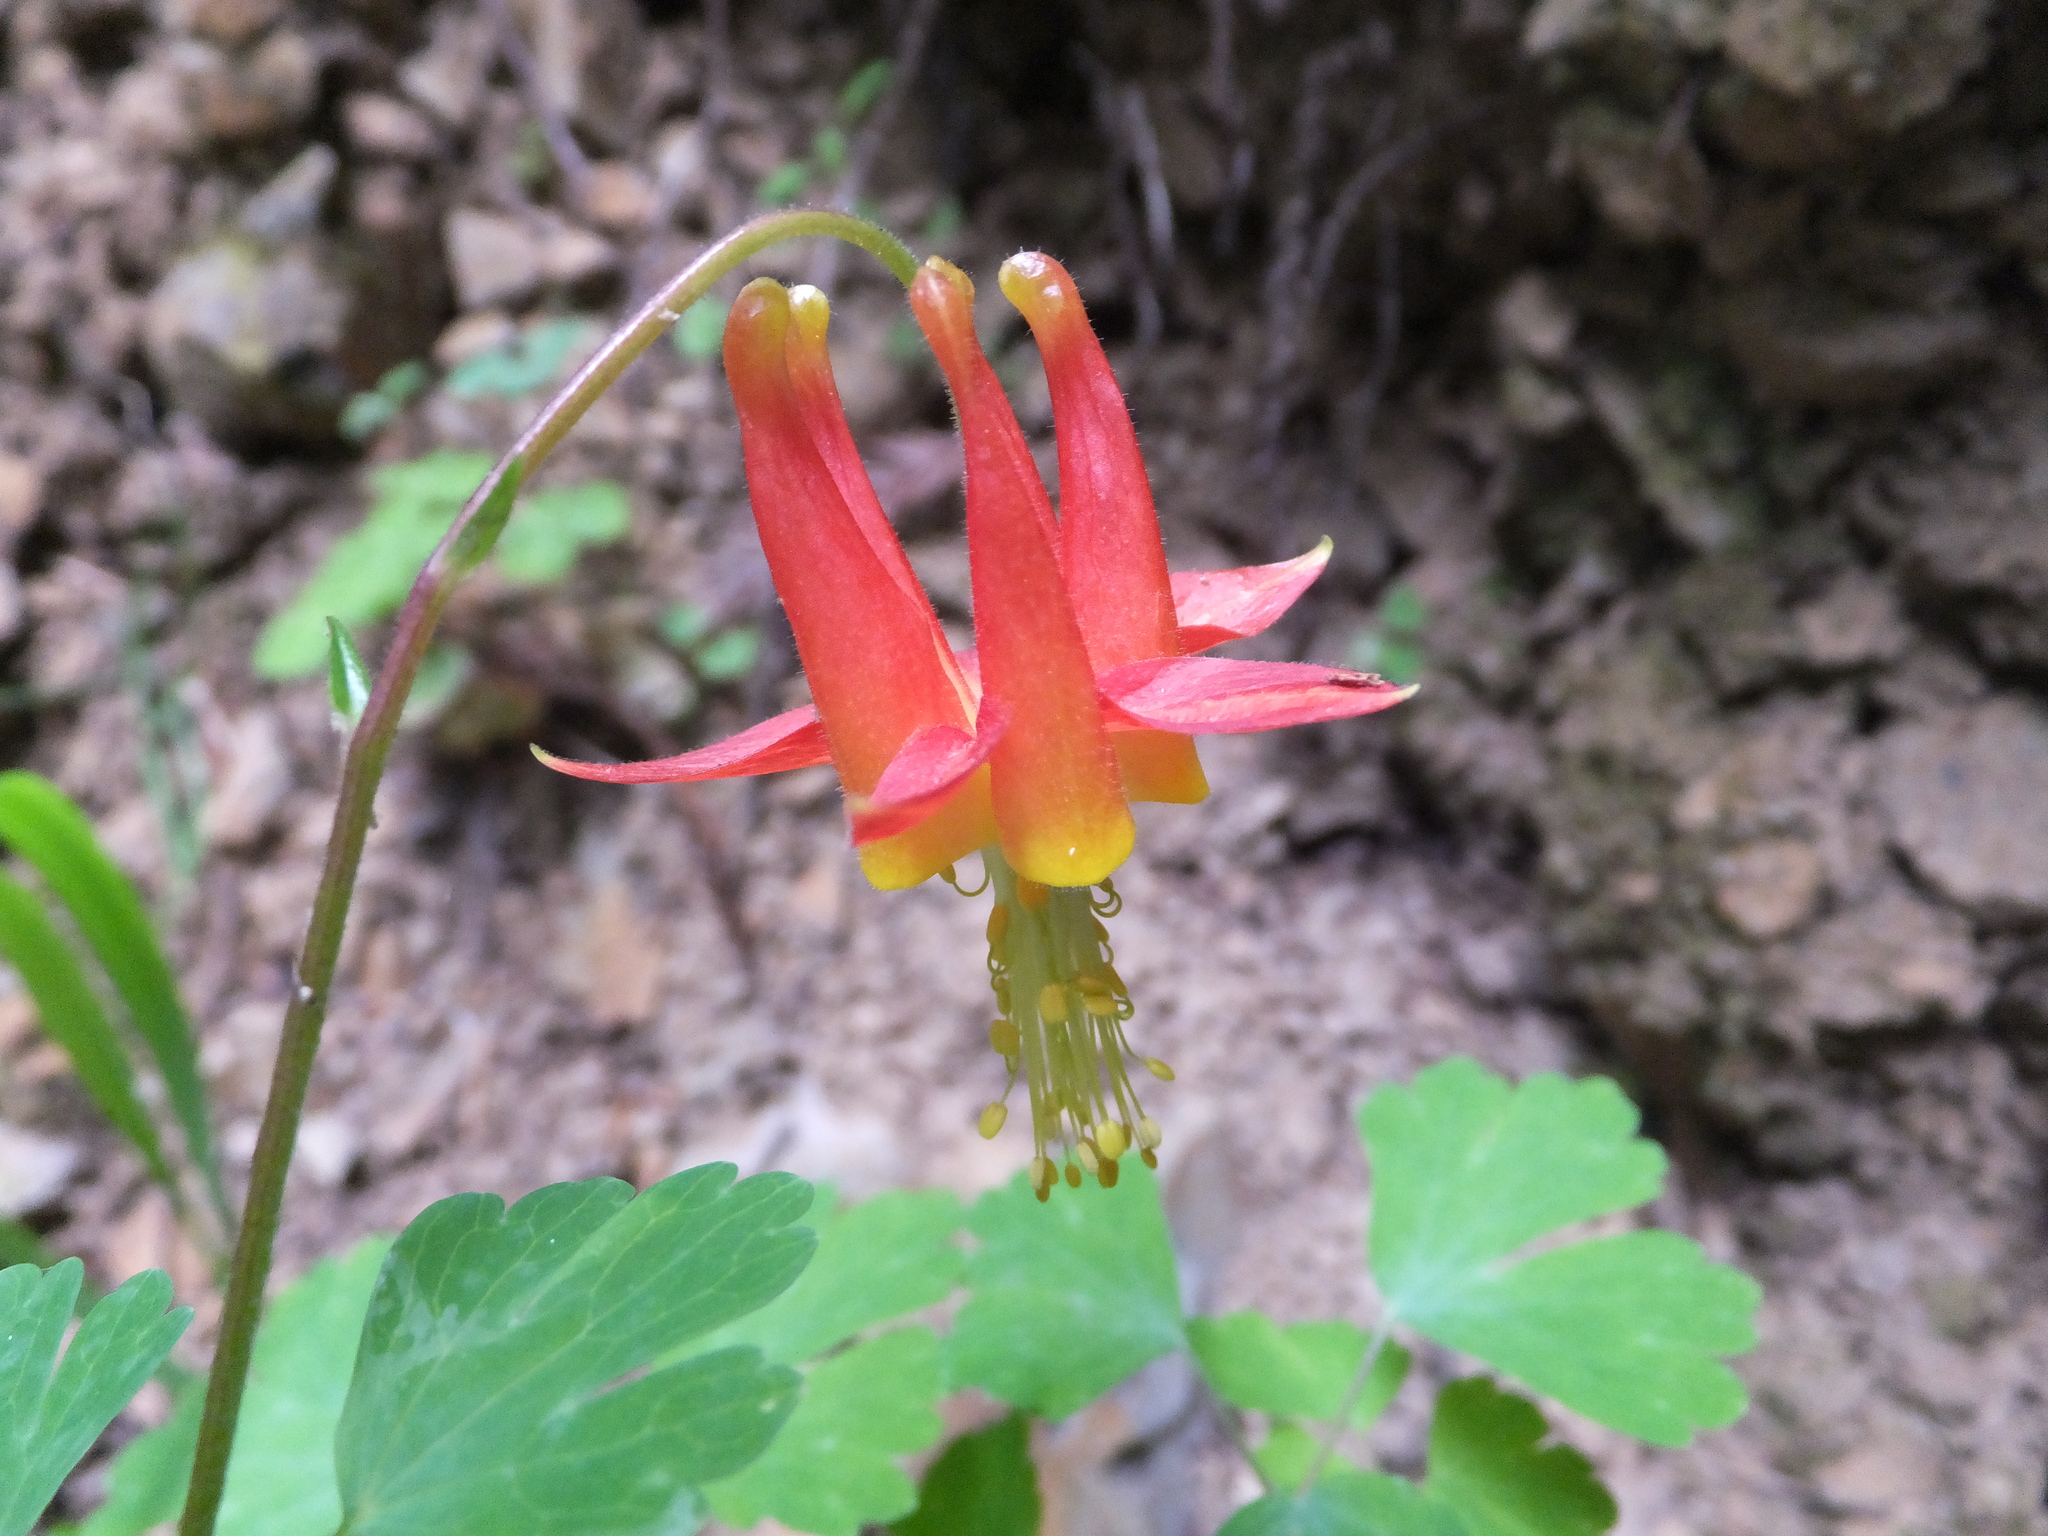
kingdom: Plantae
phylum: Tracheophyta
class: Magnoliopsida
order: Ranunculales
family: Ranunculaceae
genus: Aquilegia
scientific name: Aquilegia formosa
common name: Sitka columbine
